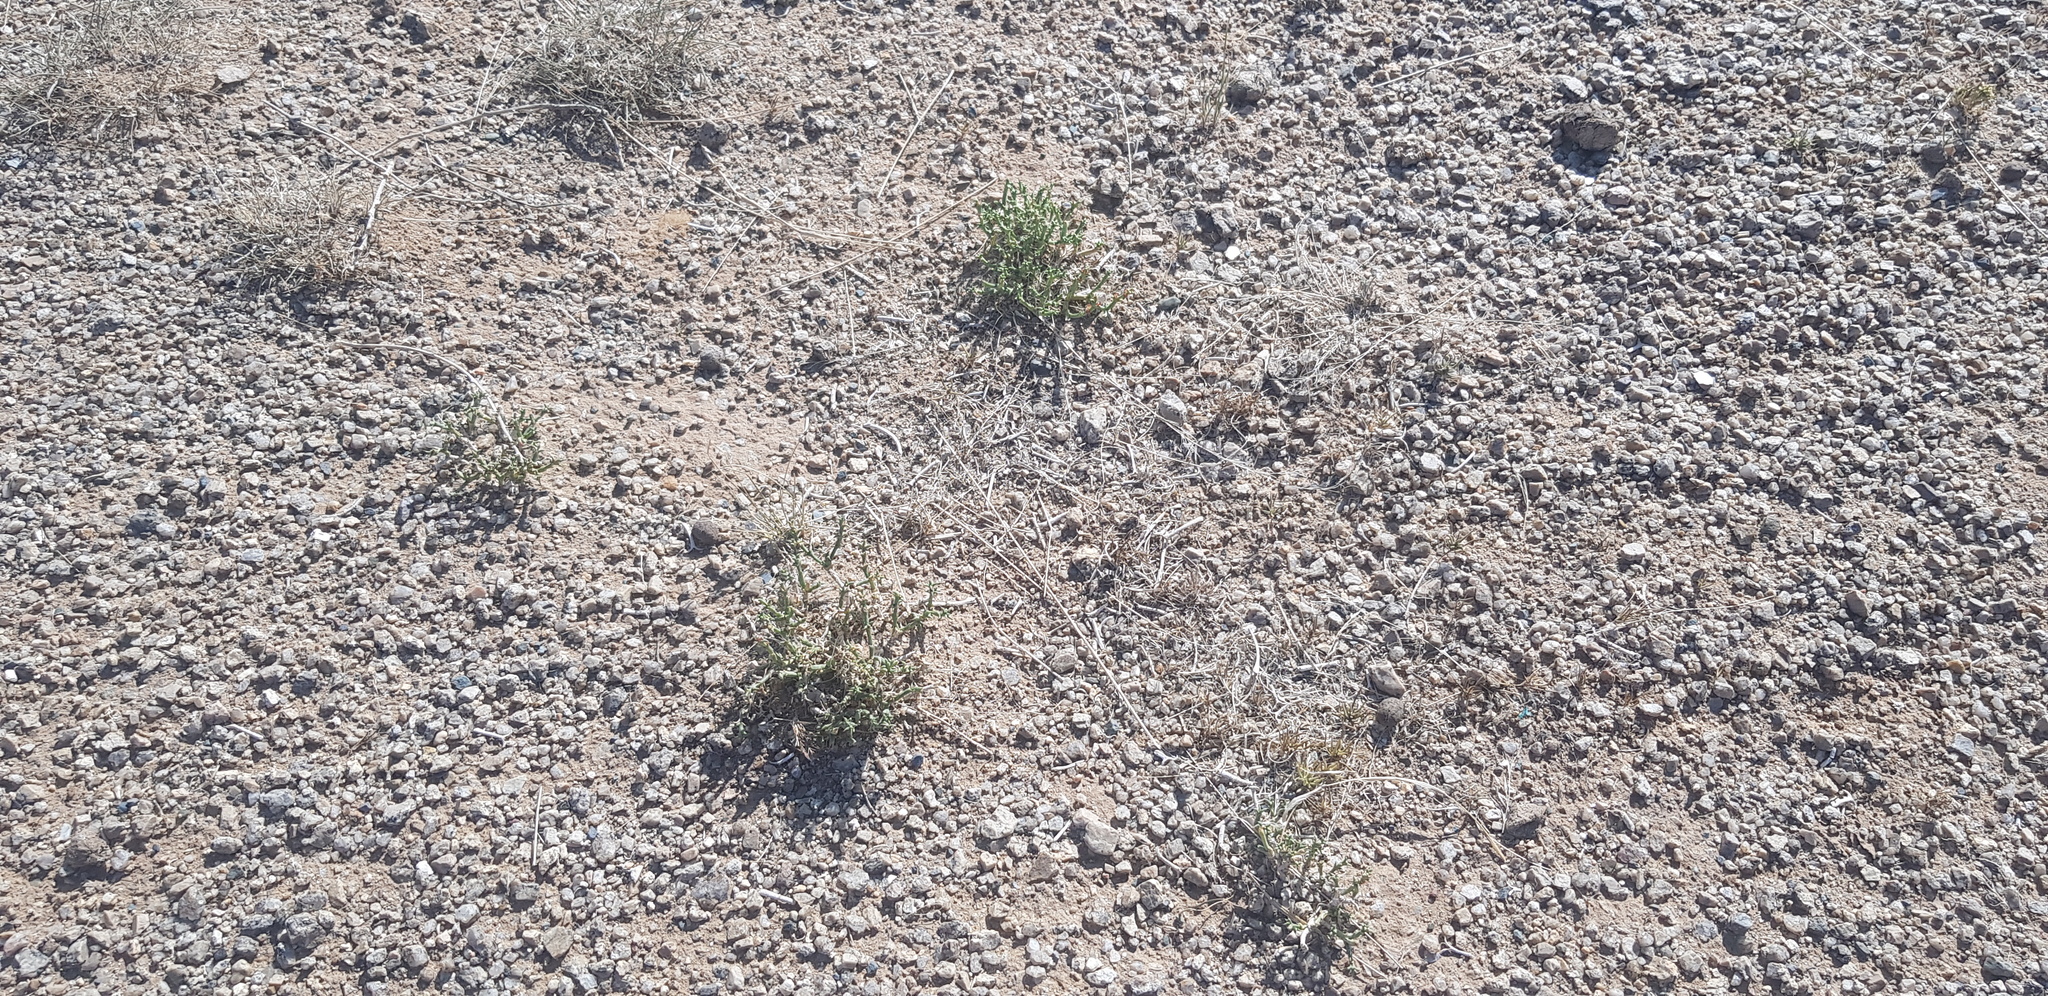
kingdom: Plantae
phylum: Tracheophyta
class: Magnoliopsida
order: Caryophyllales
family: Amaranthaceae
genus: Anabasis
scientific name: Anabasis brevifolia
